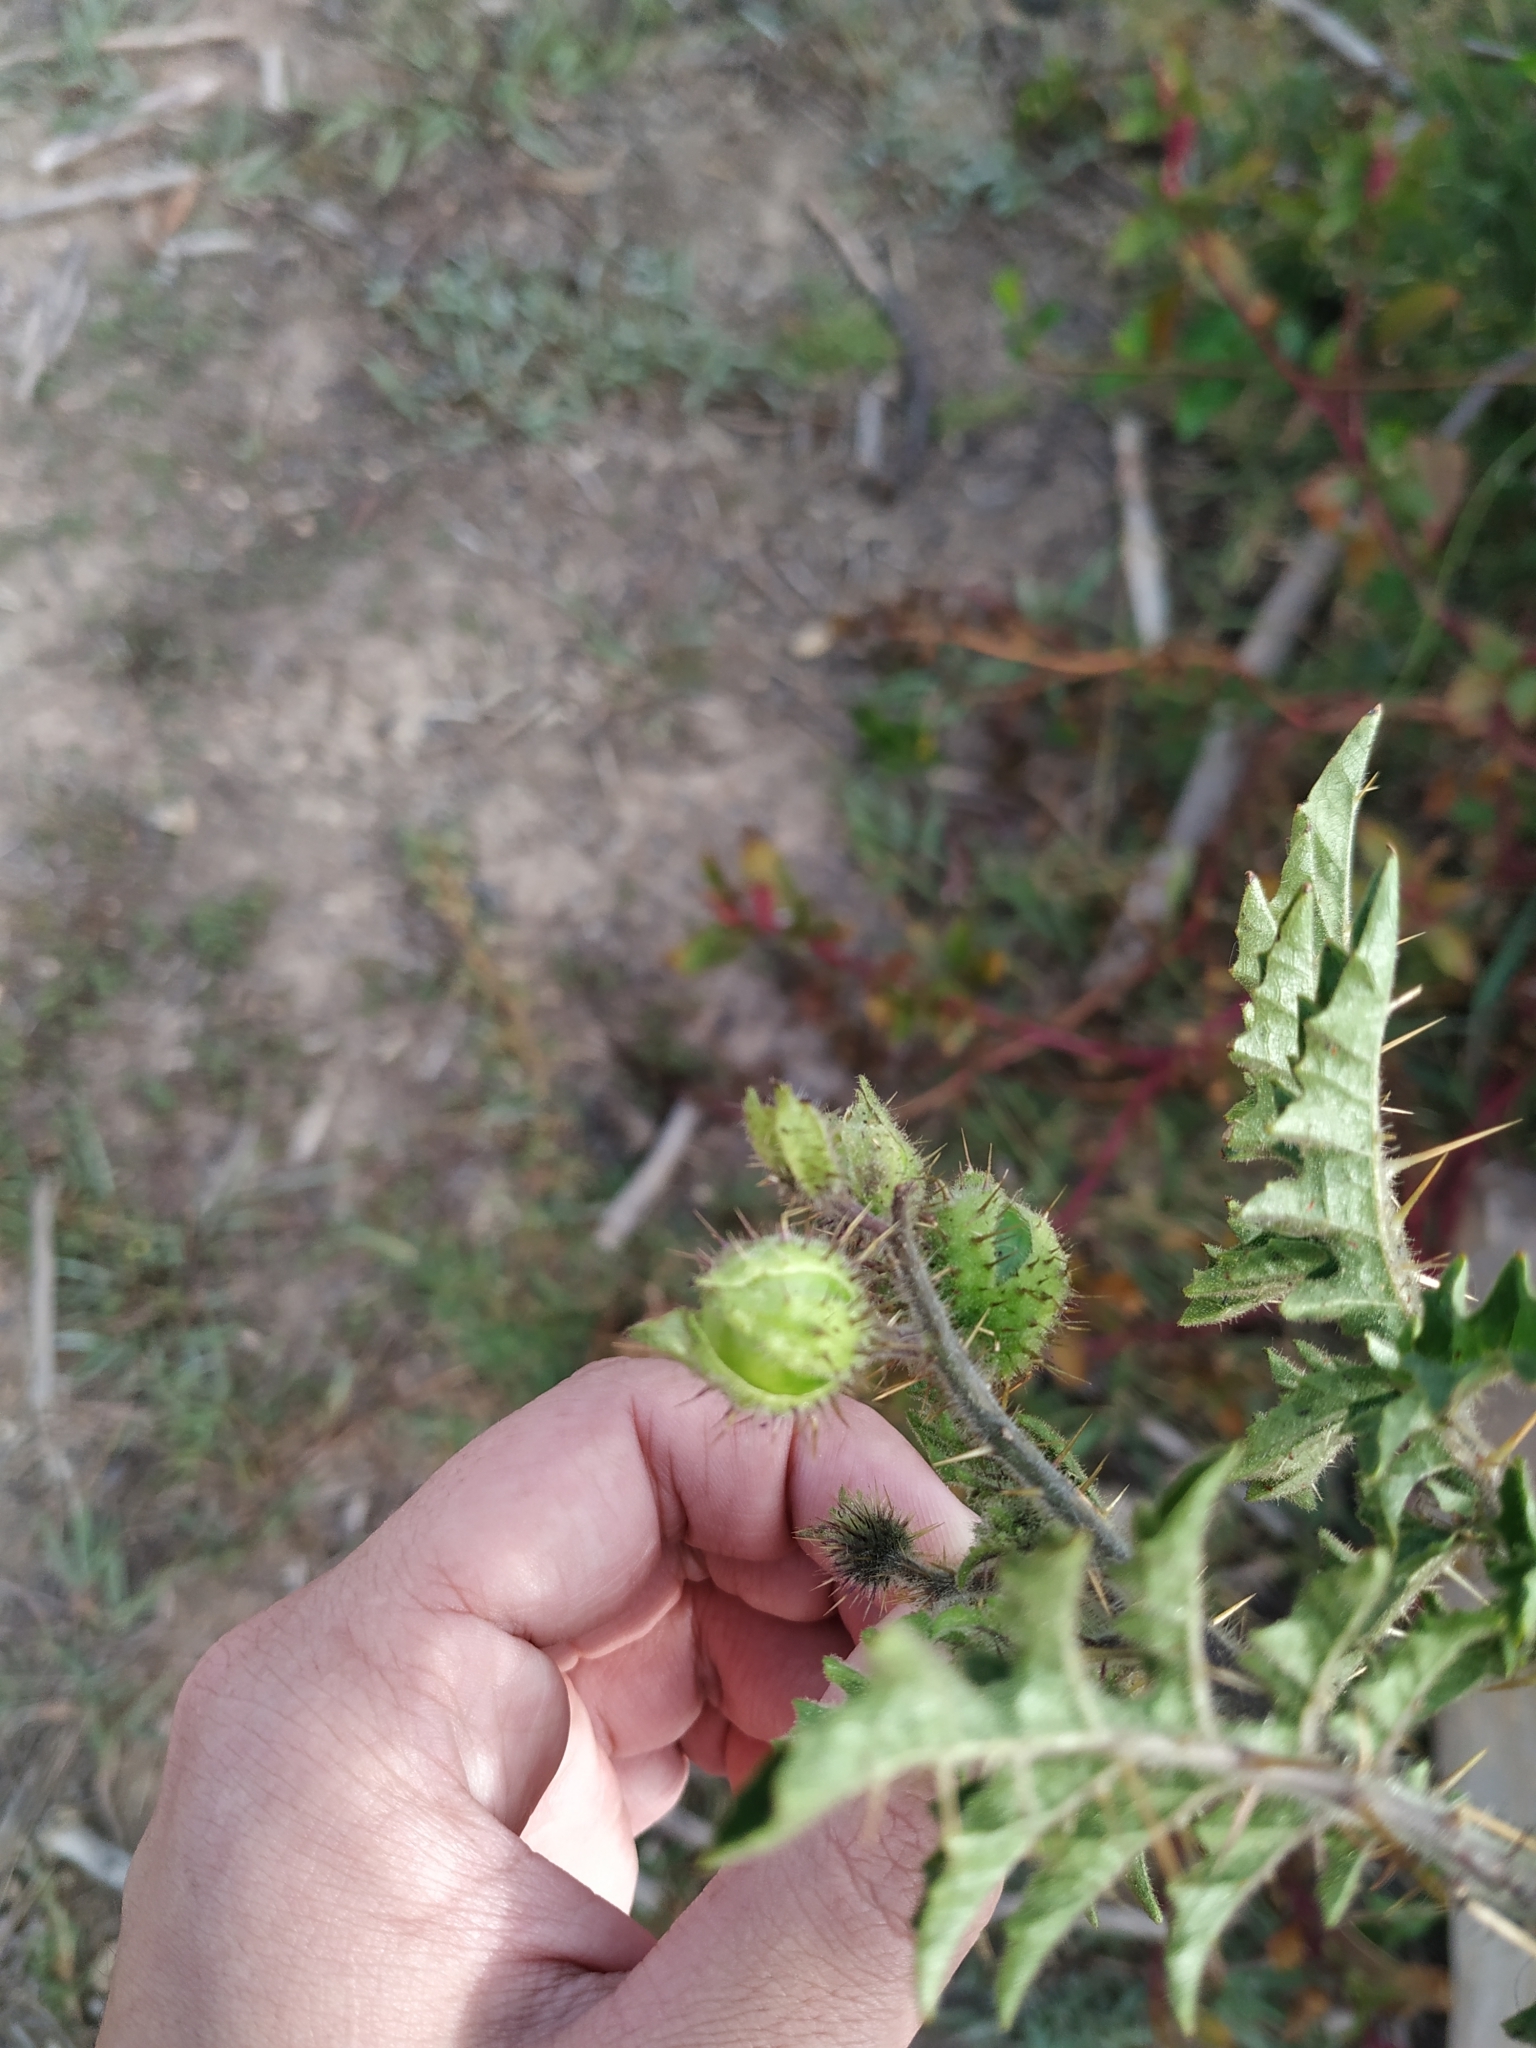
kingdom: Plantae
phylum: Tracheophyta
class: Magnoliopsida
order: Solanales
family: Solanaceae
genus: Solanum
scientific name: Solanum sisymbriifolium
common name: Red buffalo-bur
